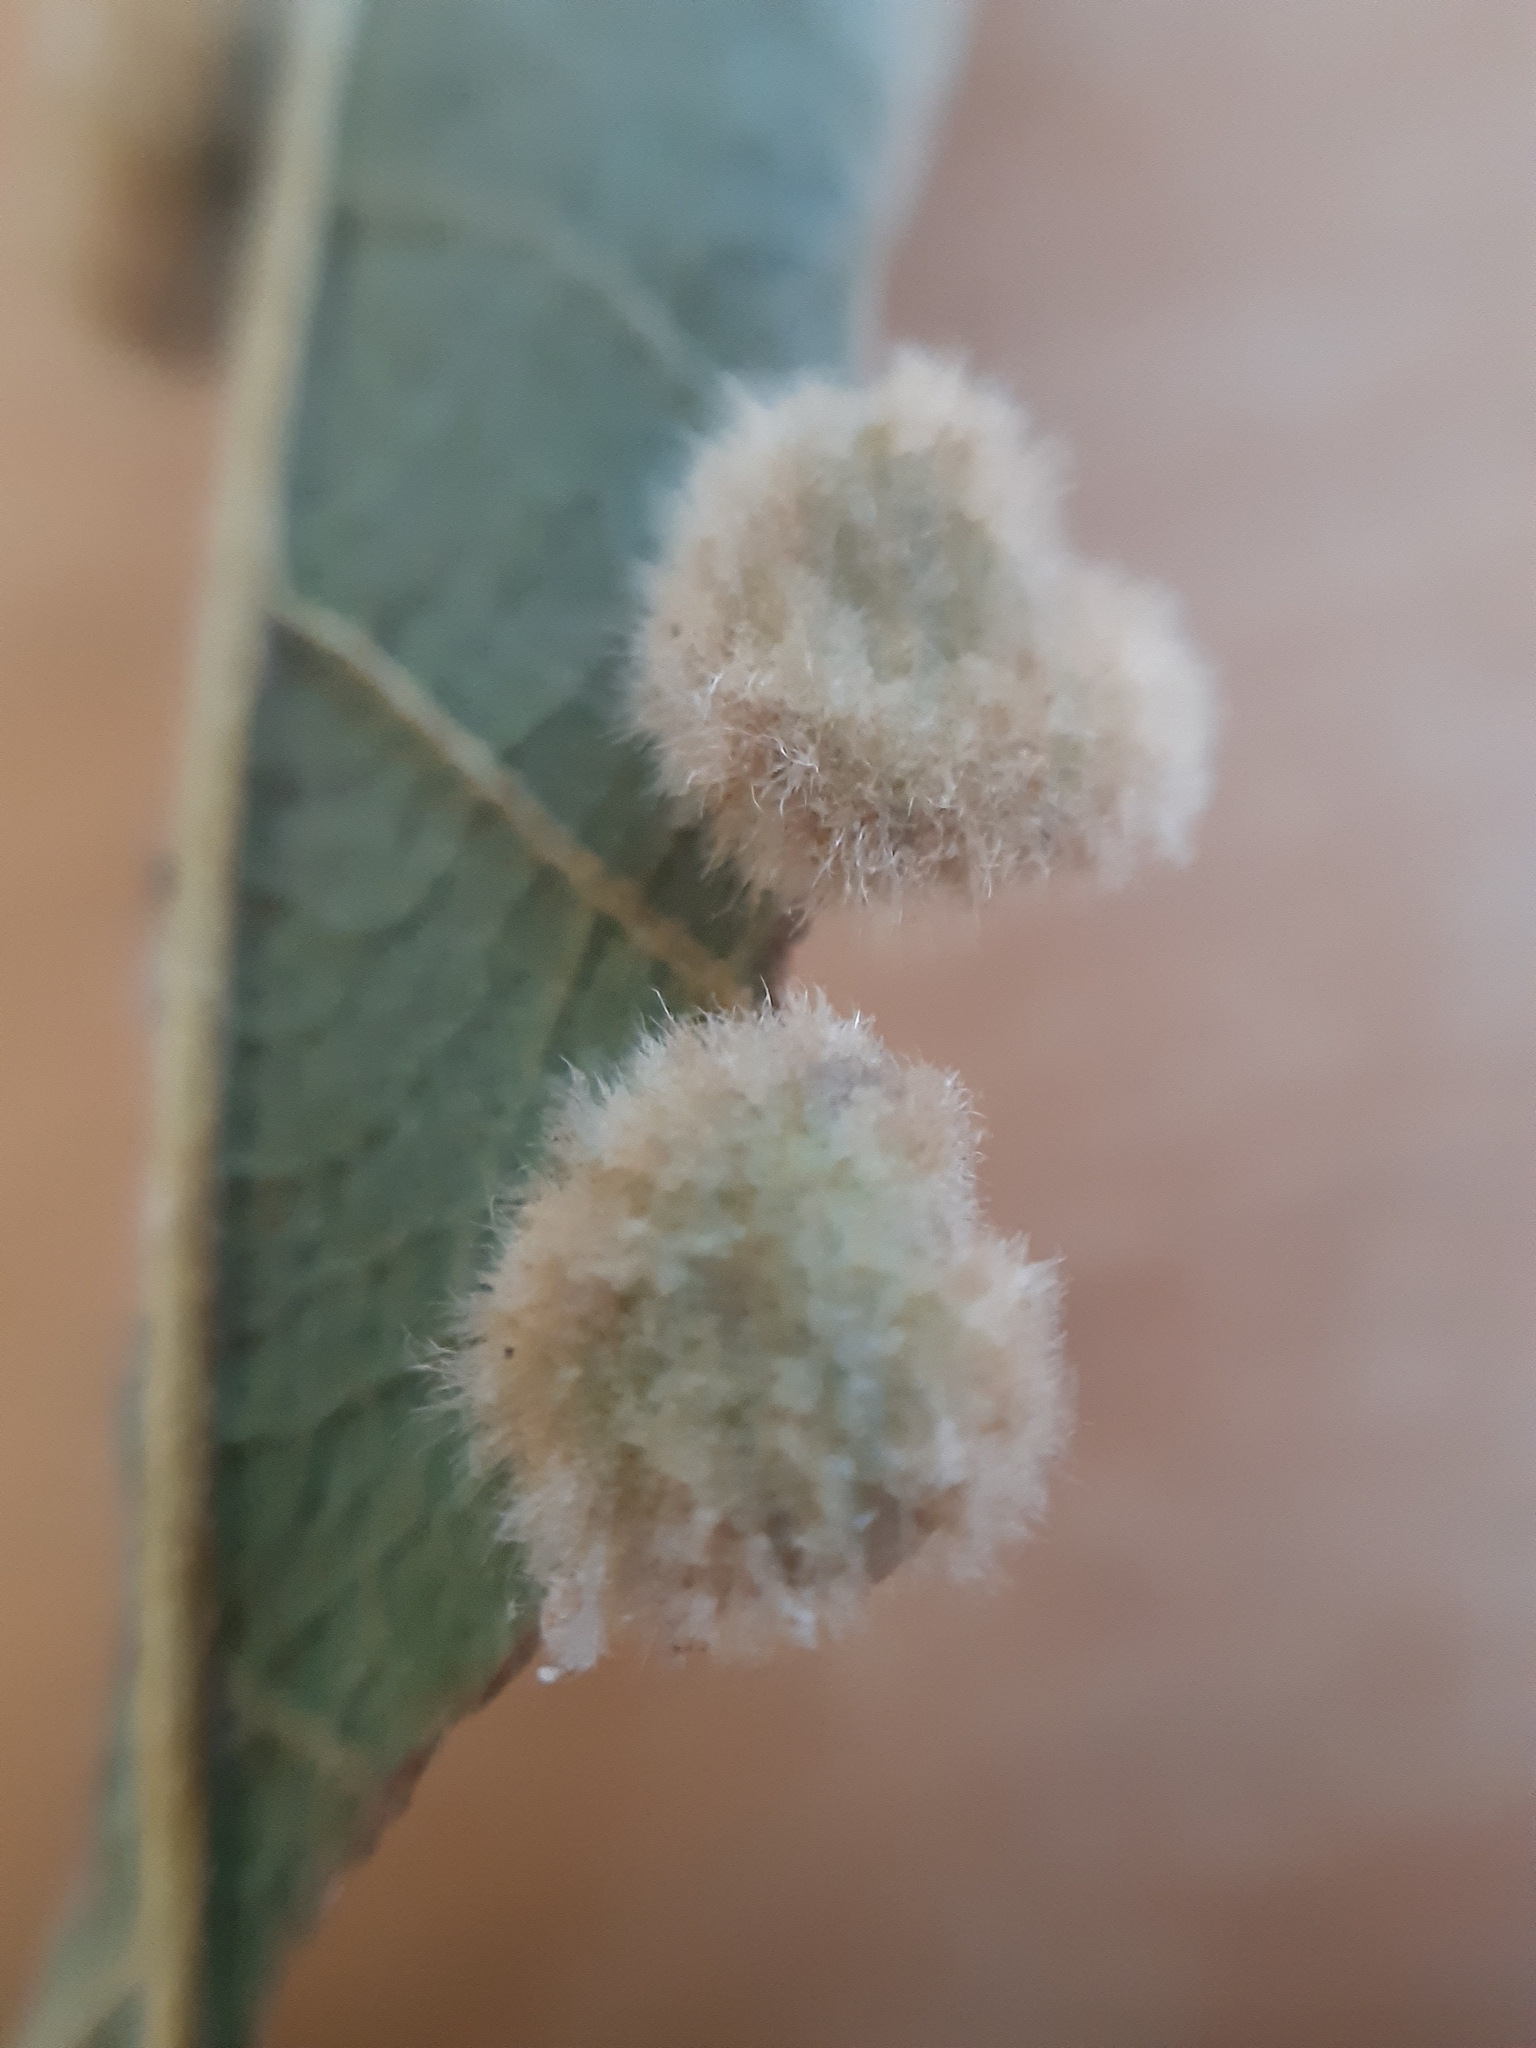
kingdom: Animalia
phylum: Arthropoda
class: Insecta
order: Diptera
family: Cecidomyiidae
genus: Dryomyia
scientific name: Dryomyia circinans
